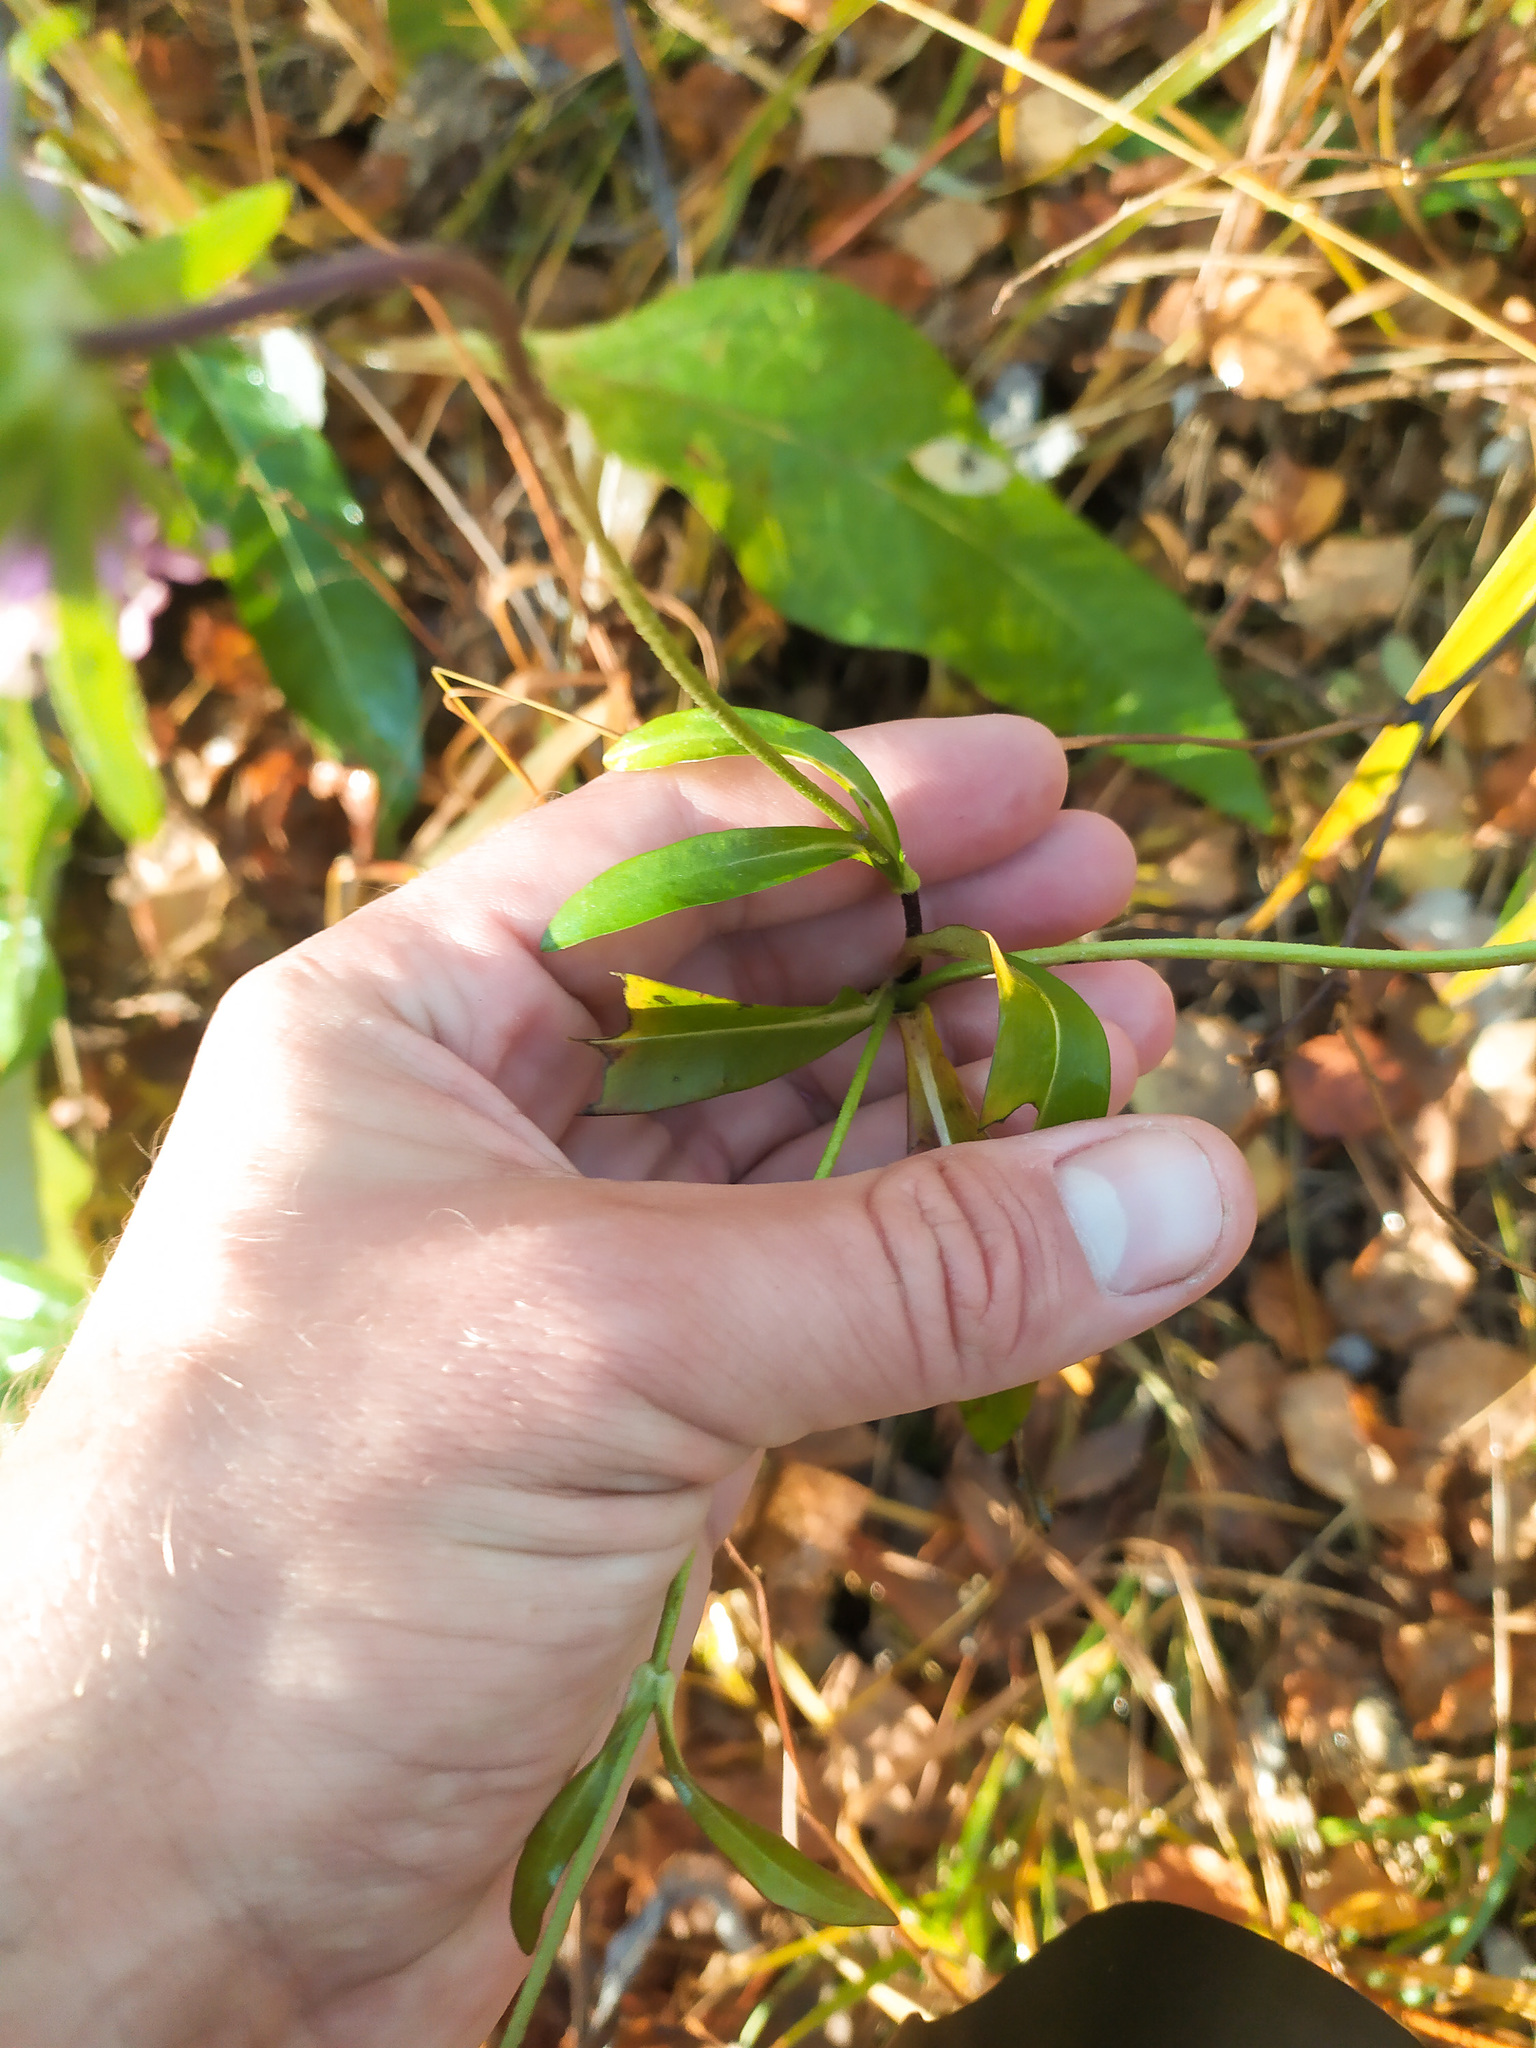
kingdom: Plantae
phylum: Tracheophyta
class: Magnoliopsida
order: Dipsacales
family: Caprifoliaceae
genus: Succisa
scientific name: Succisa pratensis
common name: Devil's-bit
